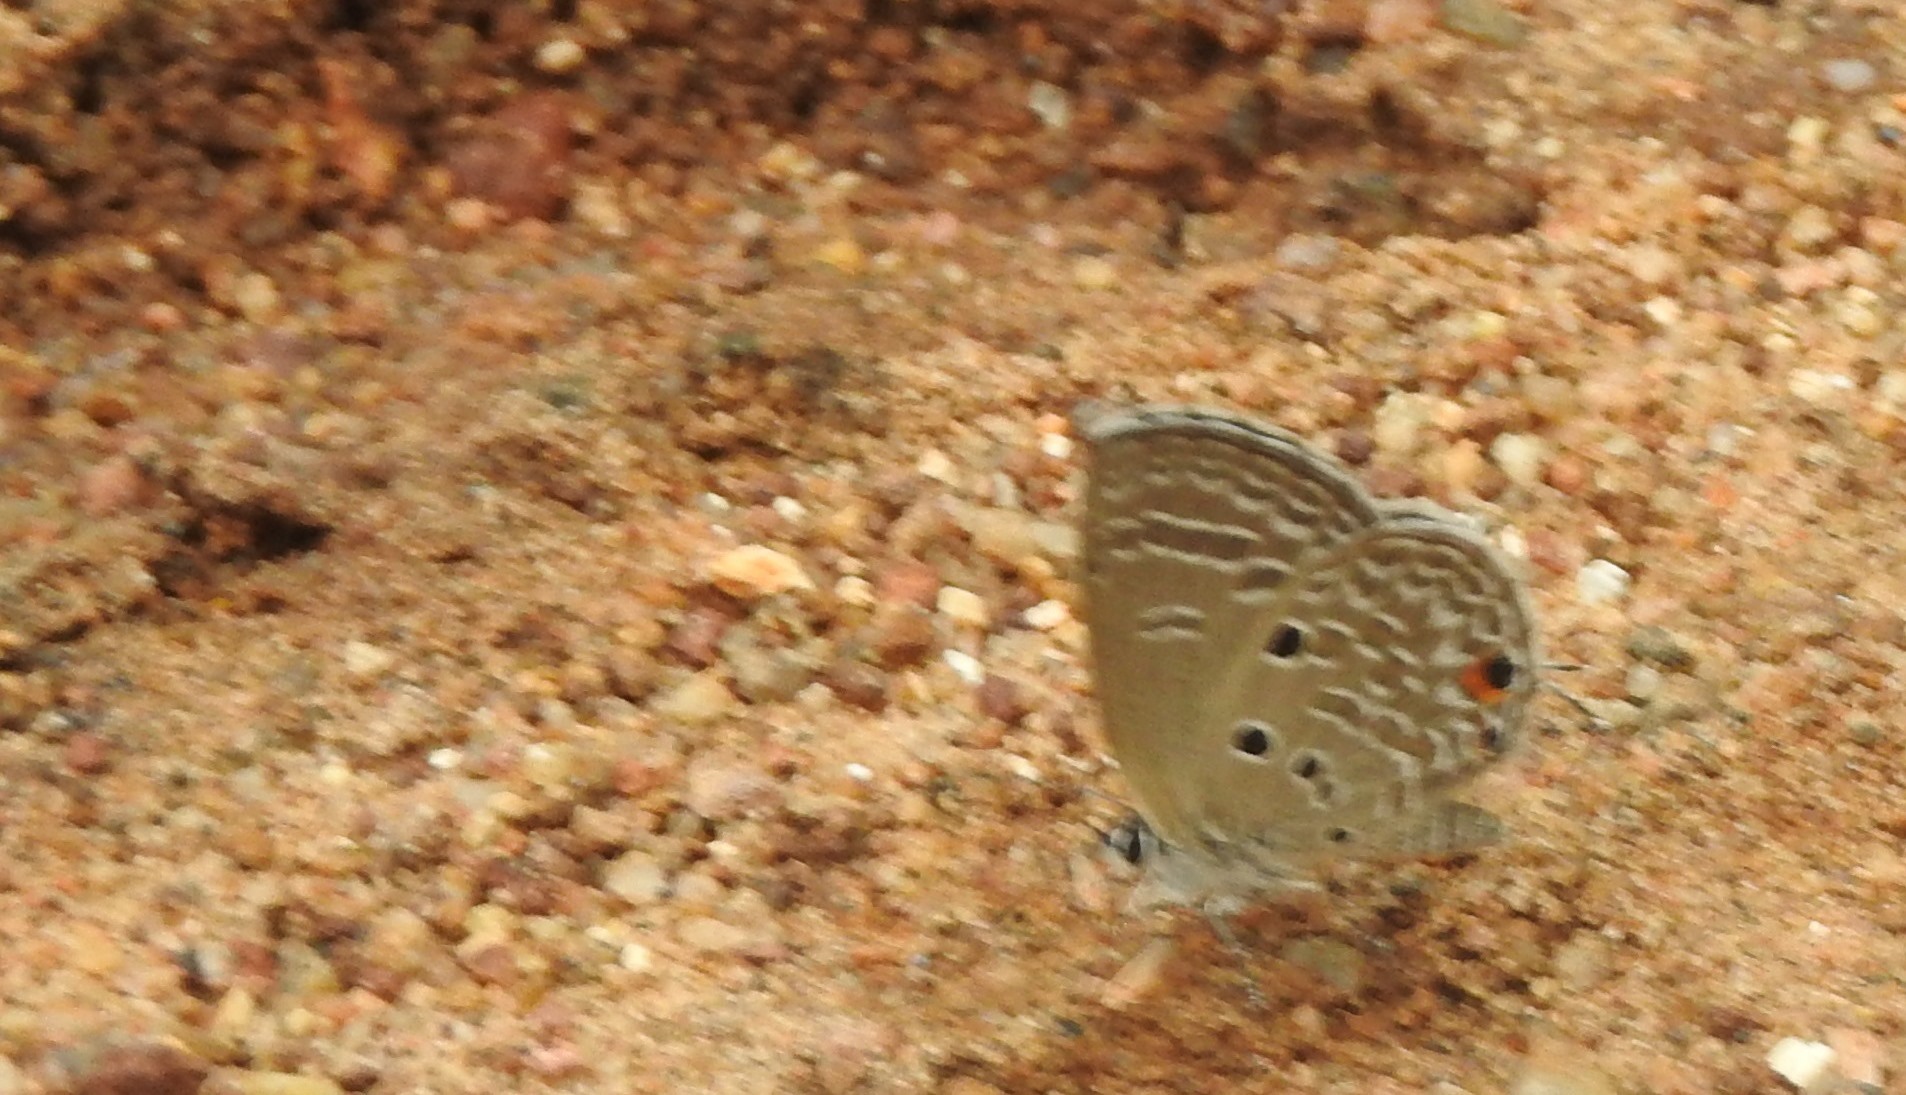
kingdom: Animalia
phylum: Arthropoda
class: Insecta
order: Lepidoptera
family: Lycaenidae
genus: Luthrodes
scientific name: Luthrodes pandava
